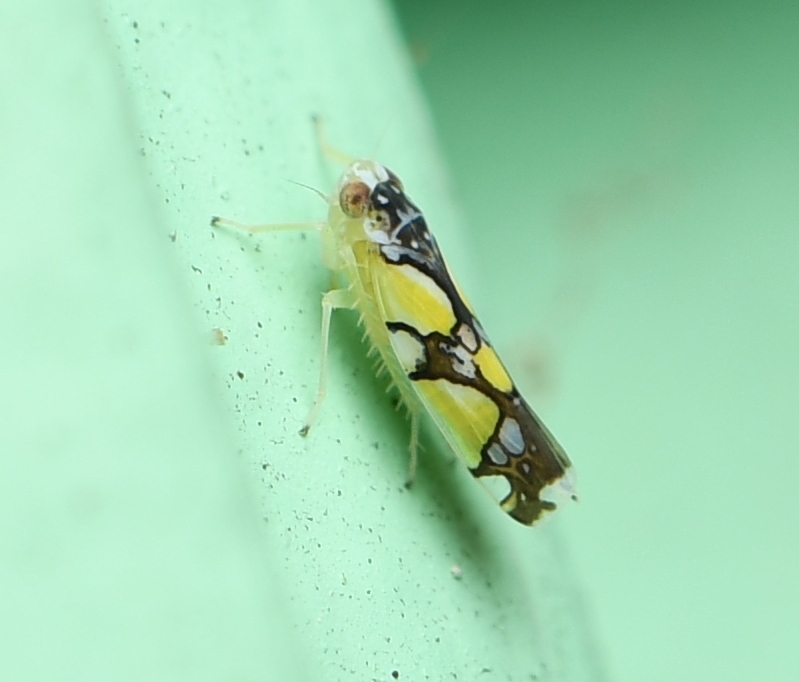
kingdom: Animalia
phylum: Arthropoda
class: Insecta
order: Hemiptera
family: Cicadellidae
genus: Protalebrella
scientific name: Protalebrella brasiliensis
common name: Brasilian leafhopper
